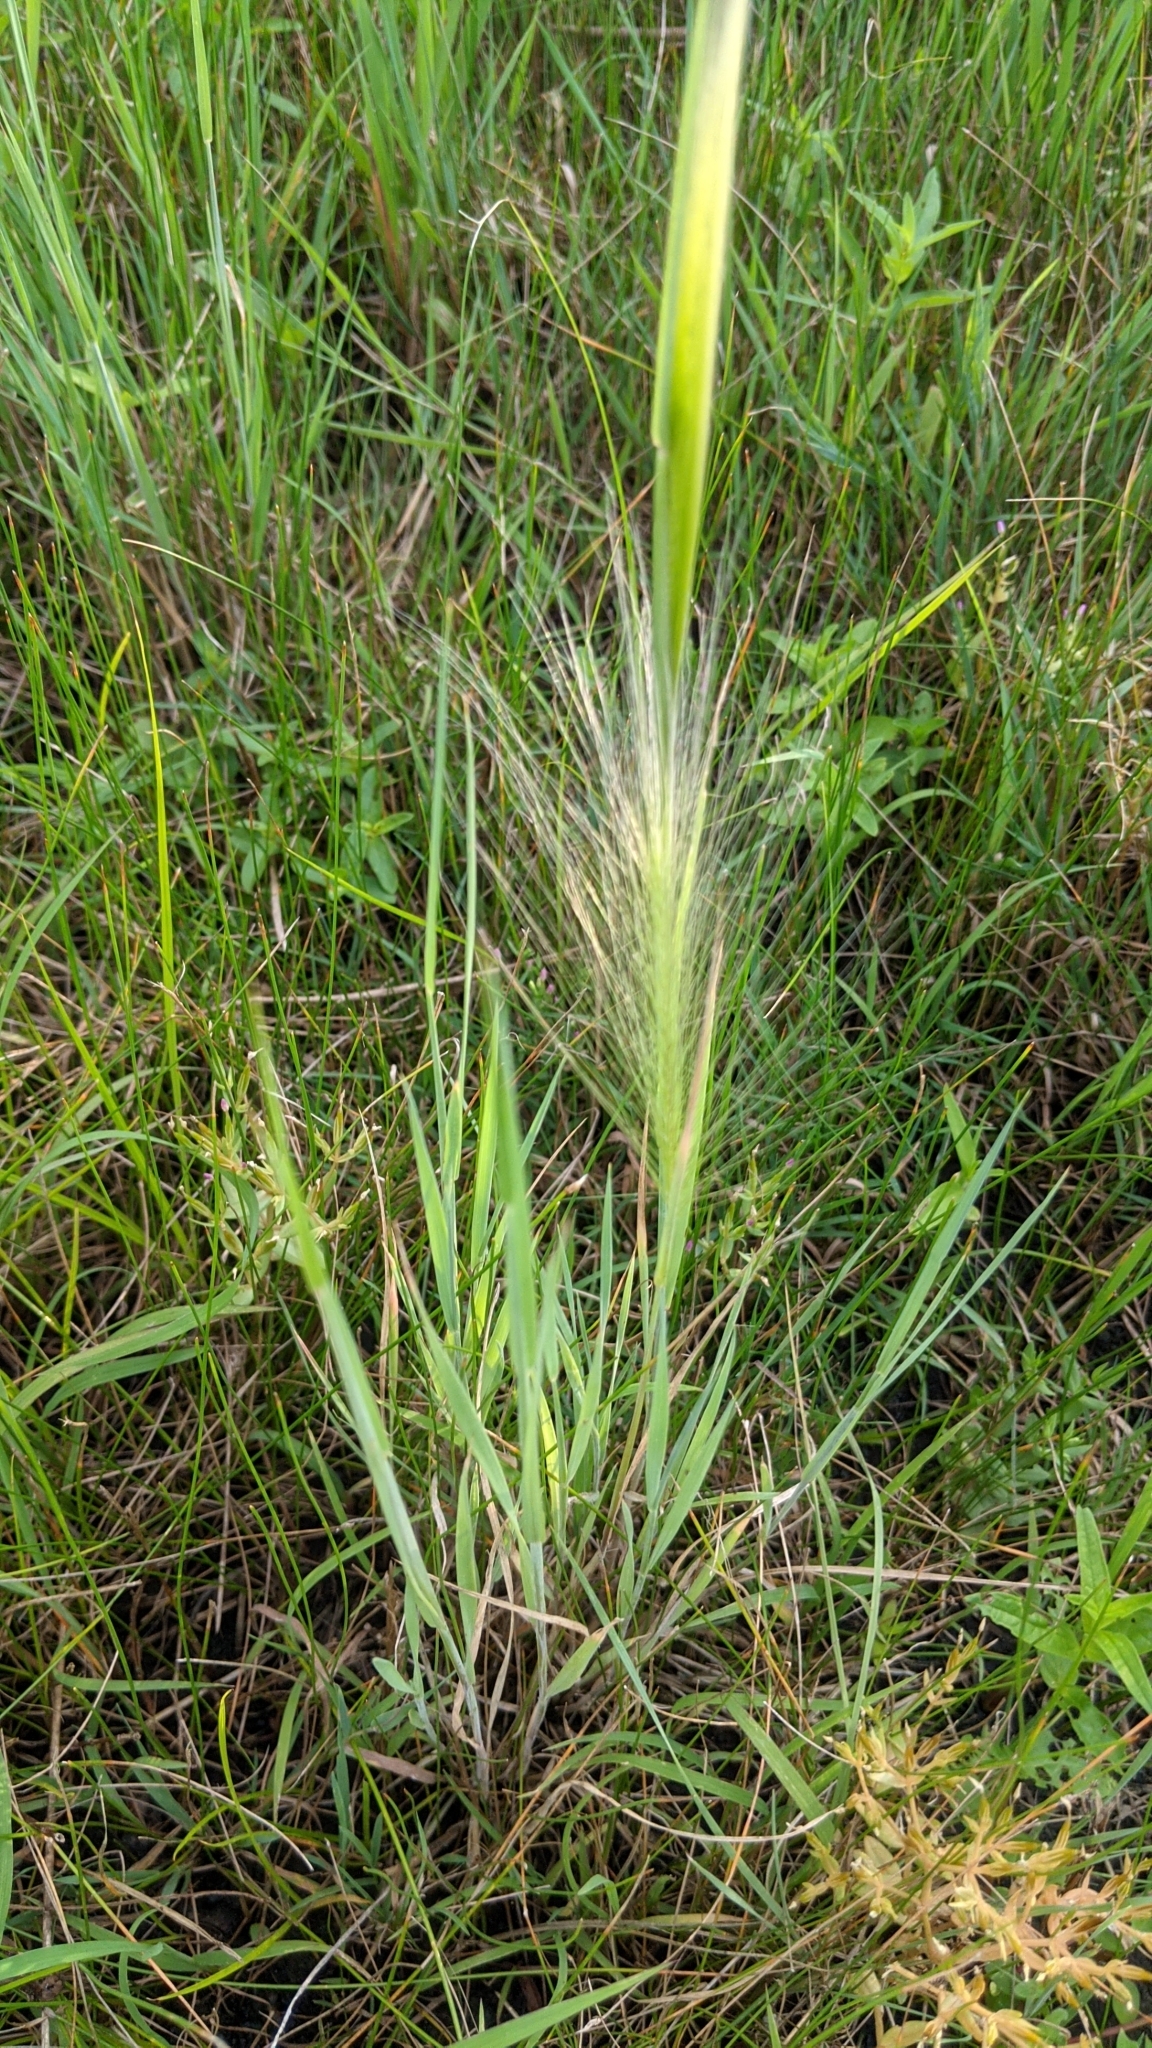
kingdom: Plantae
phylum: Tracheophyta
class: Liliopsida
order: Poales
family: Poaceae
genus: Hordeum
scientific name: Hordeum jubatum
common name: Foxtail barley
